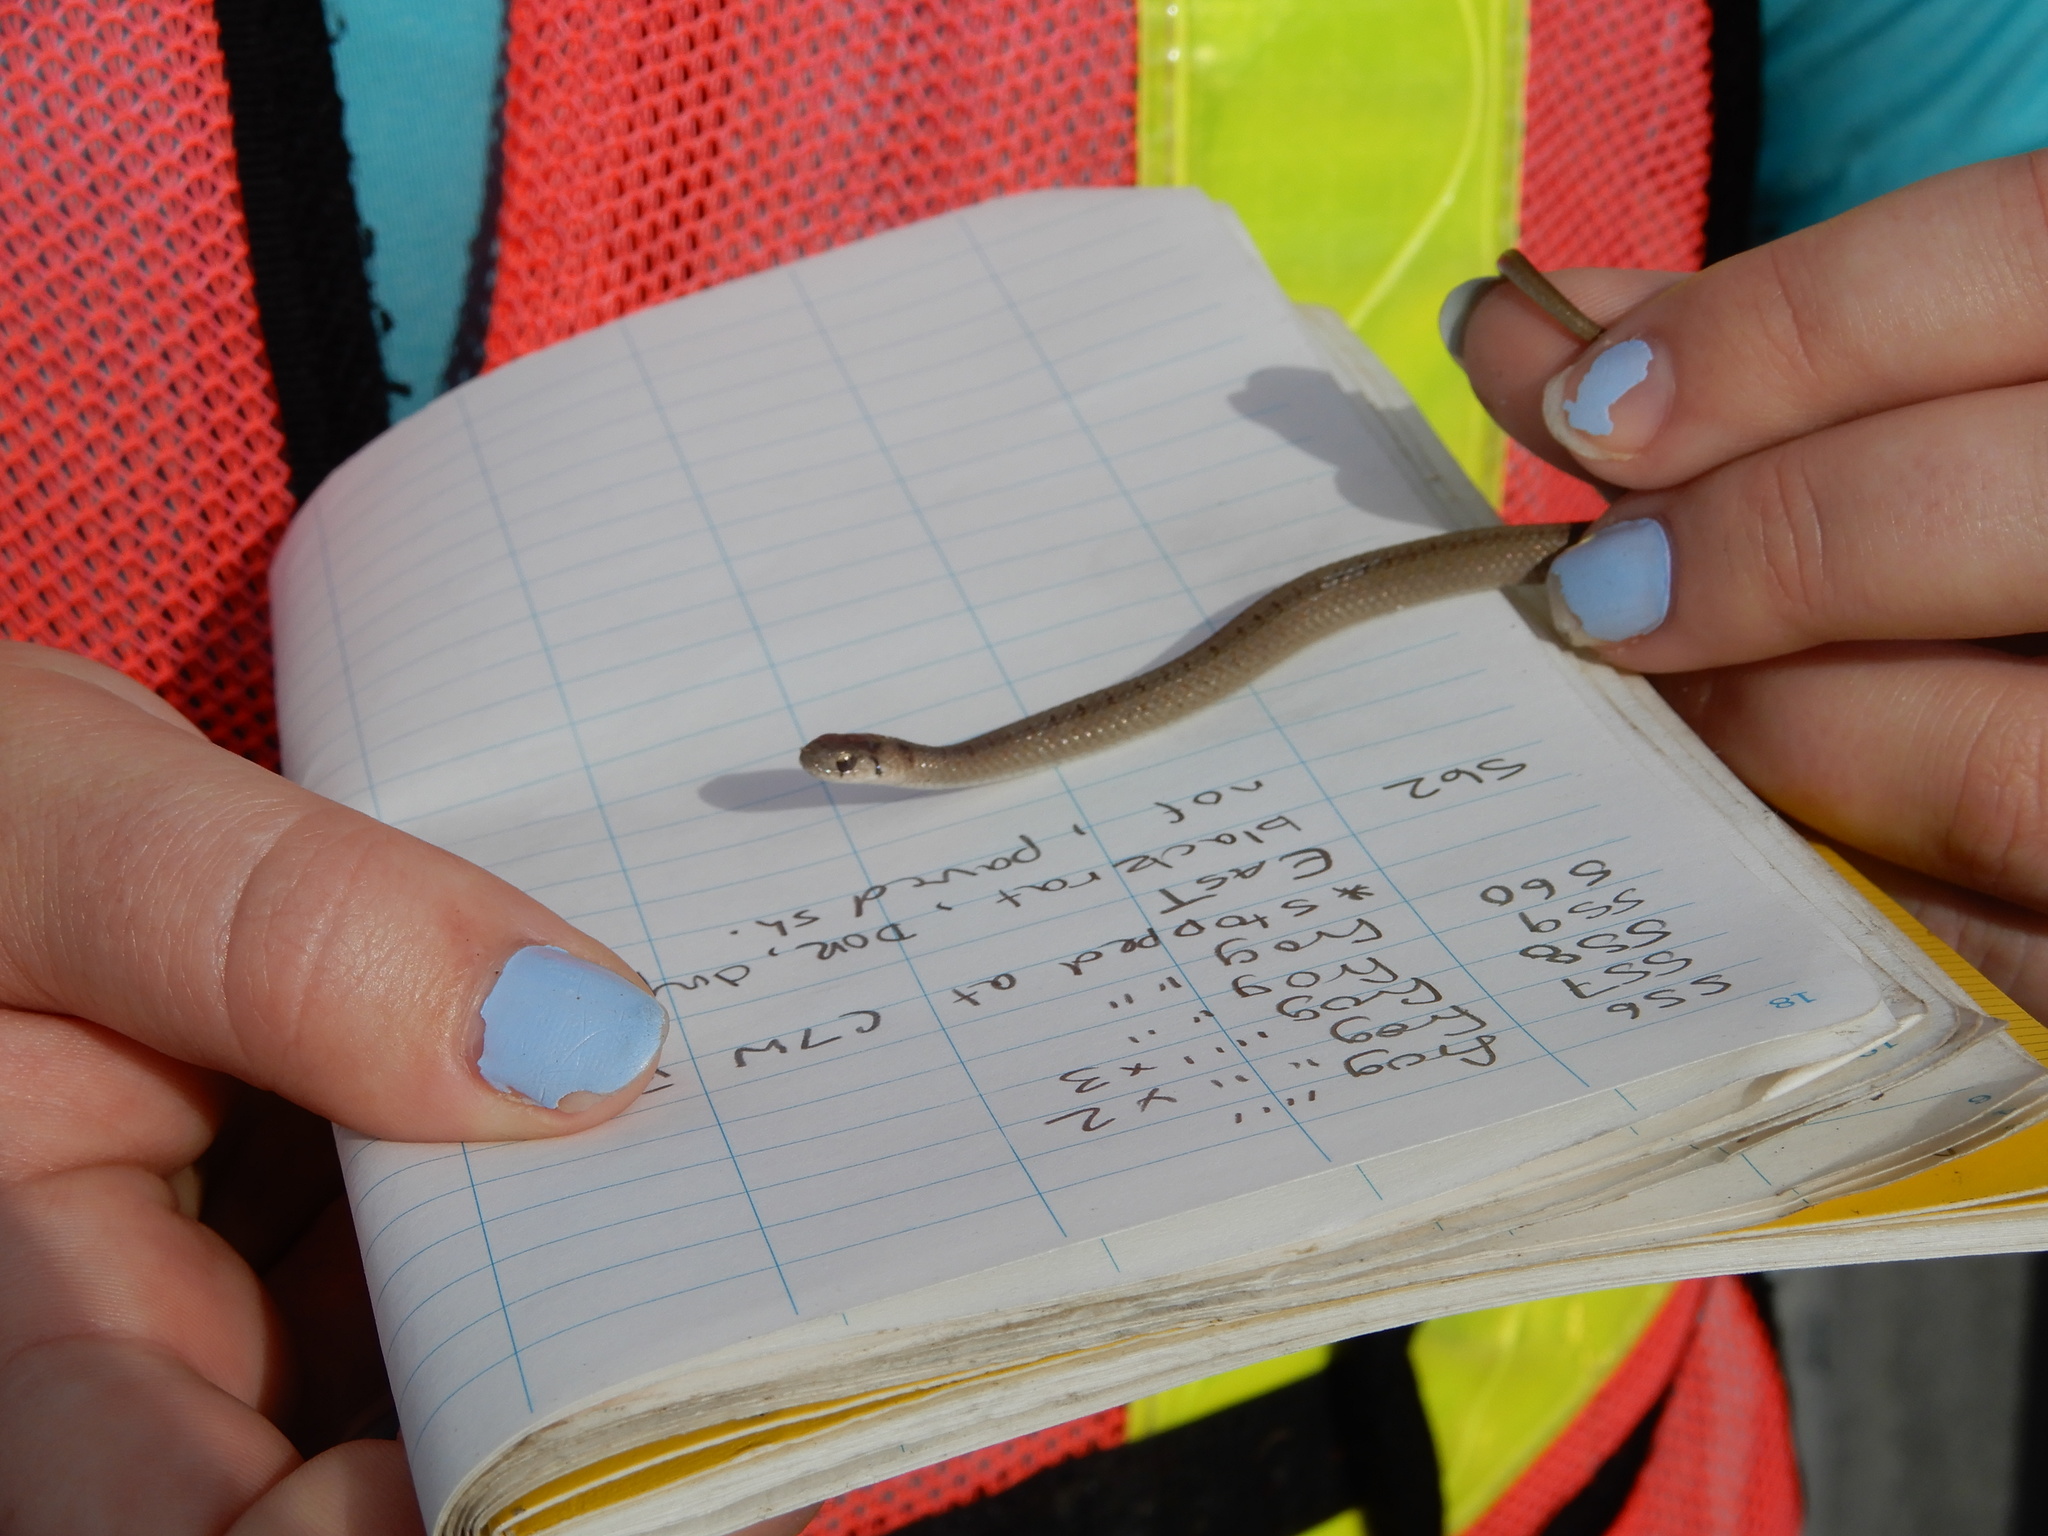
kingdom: Animalia
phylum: Chordata
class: Squamata
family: Colubridae
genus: Storeria
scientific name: Storeria dekayi
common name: (dekay’s) brown snake
